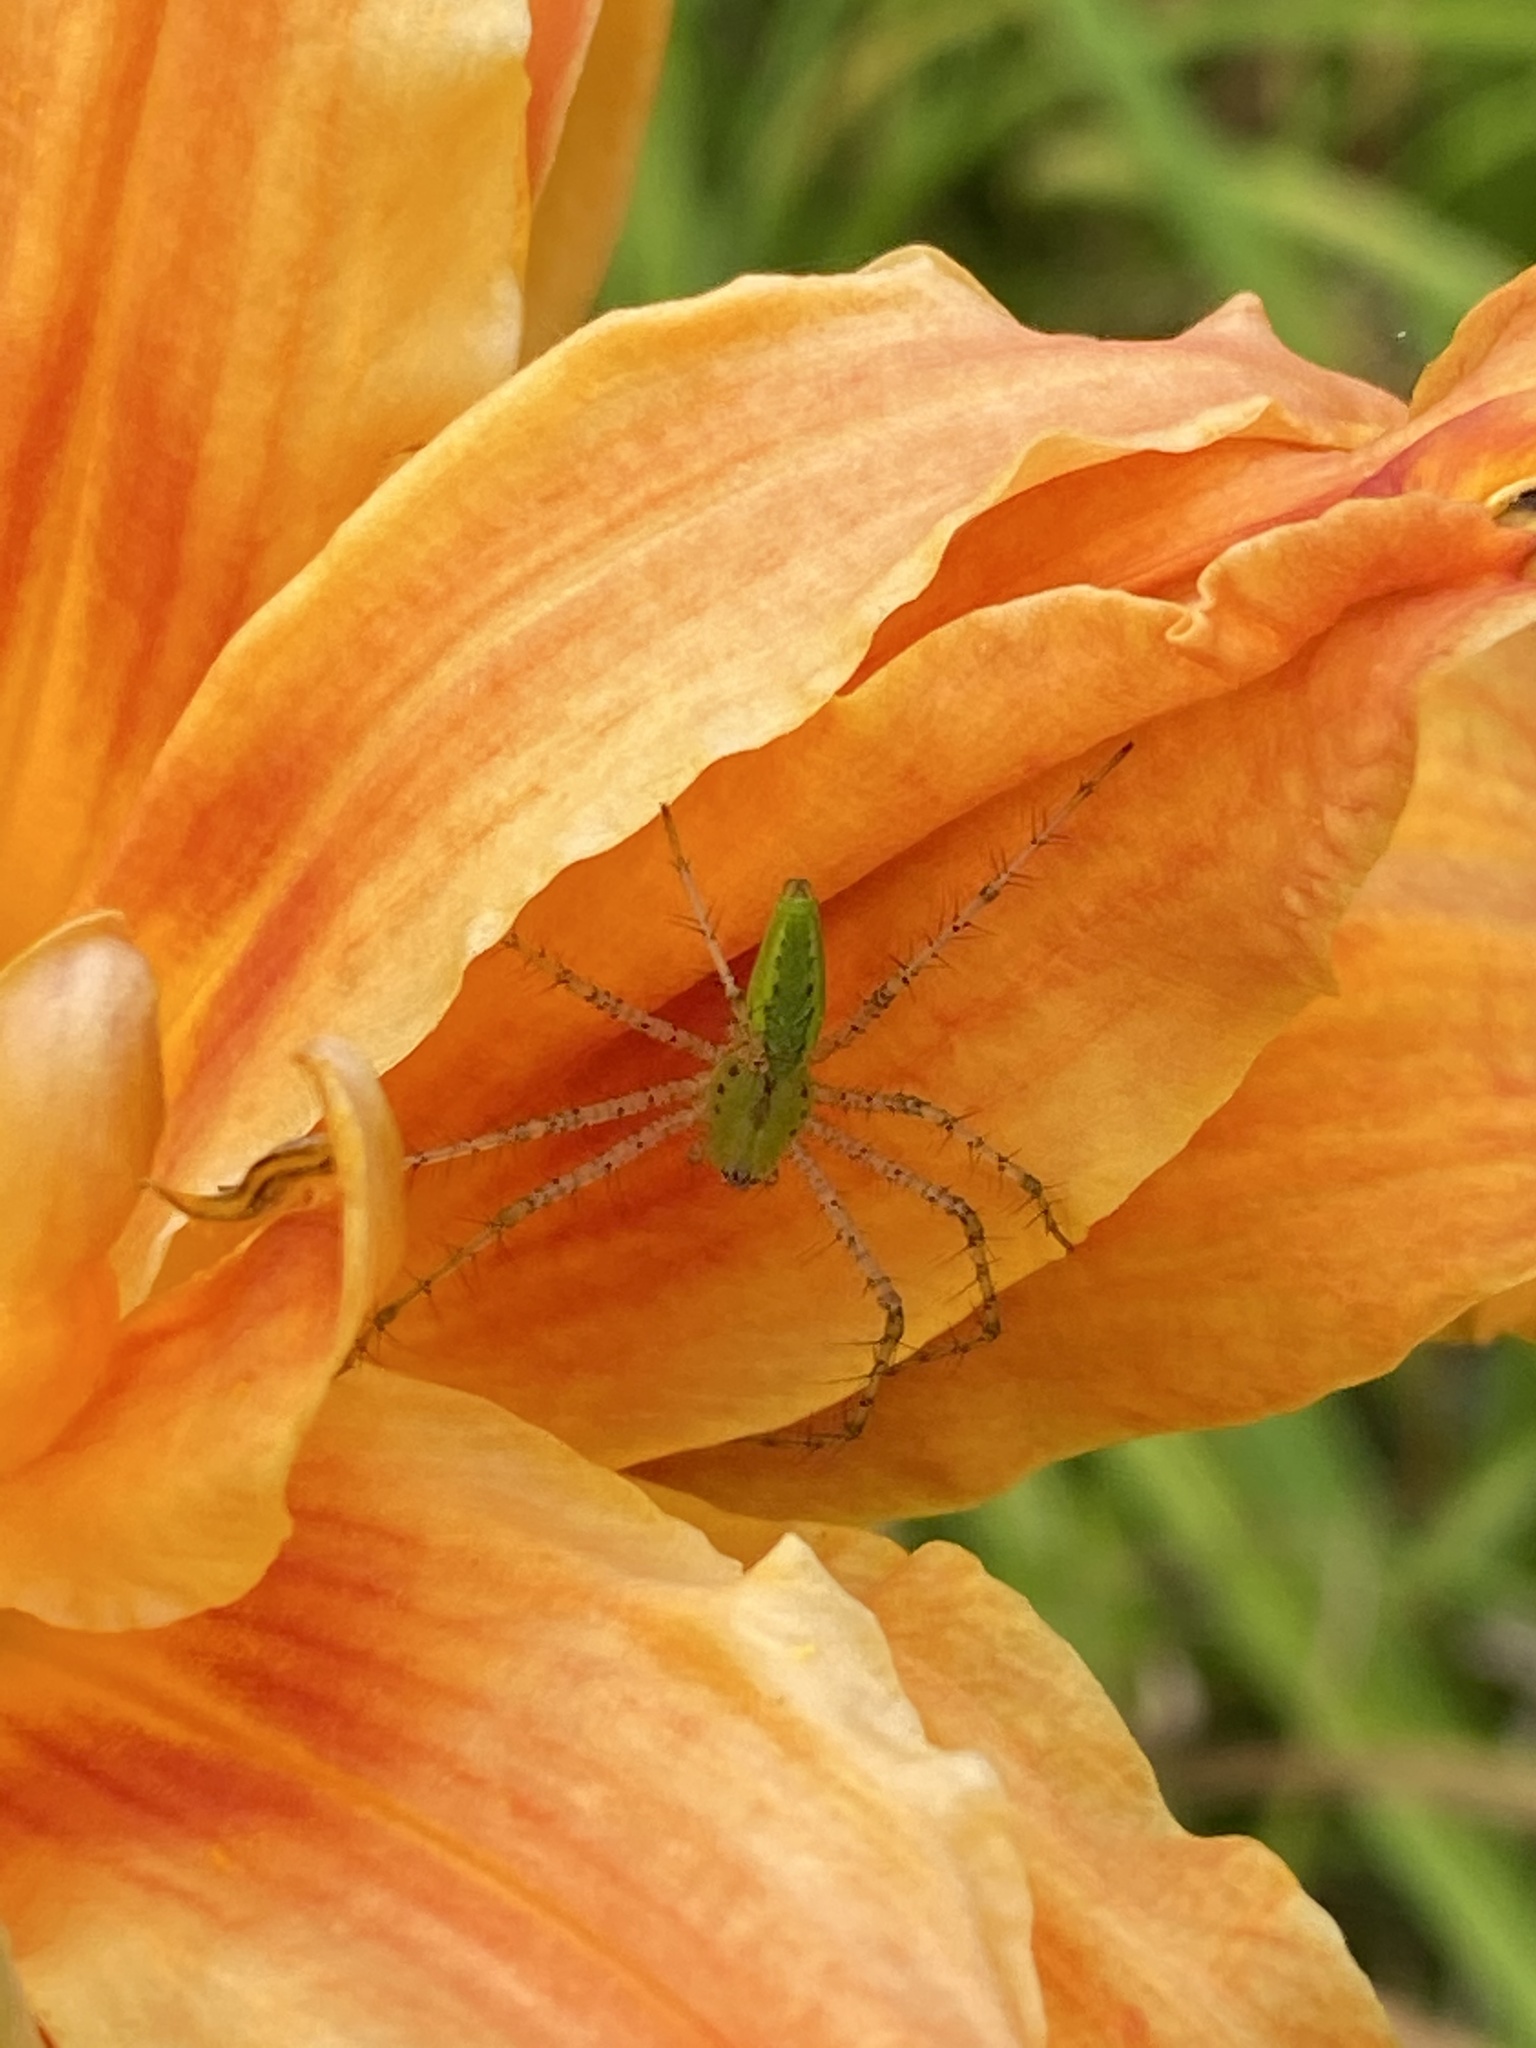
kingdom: Animalia
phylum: Arthropoda
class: Arachnida
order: Araneae
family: Oxyopidae
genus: Peucetia
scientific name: Peucetia viridans
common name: Lynx spiders
